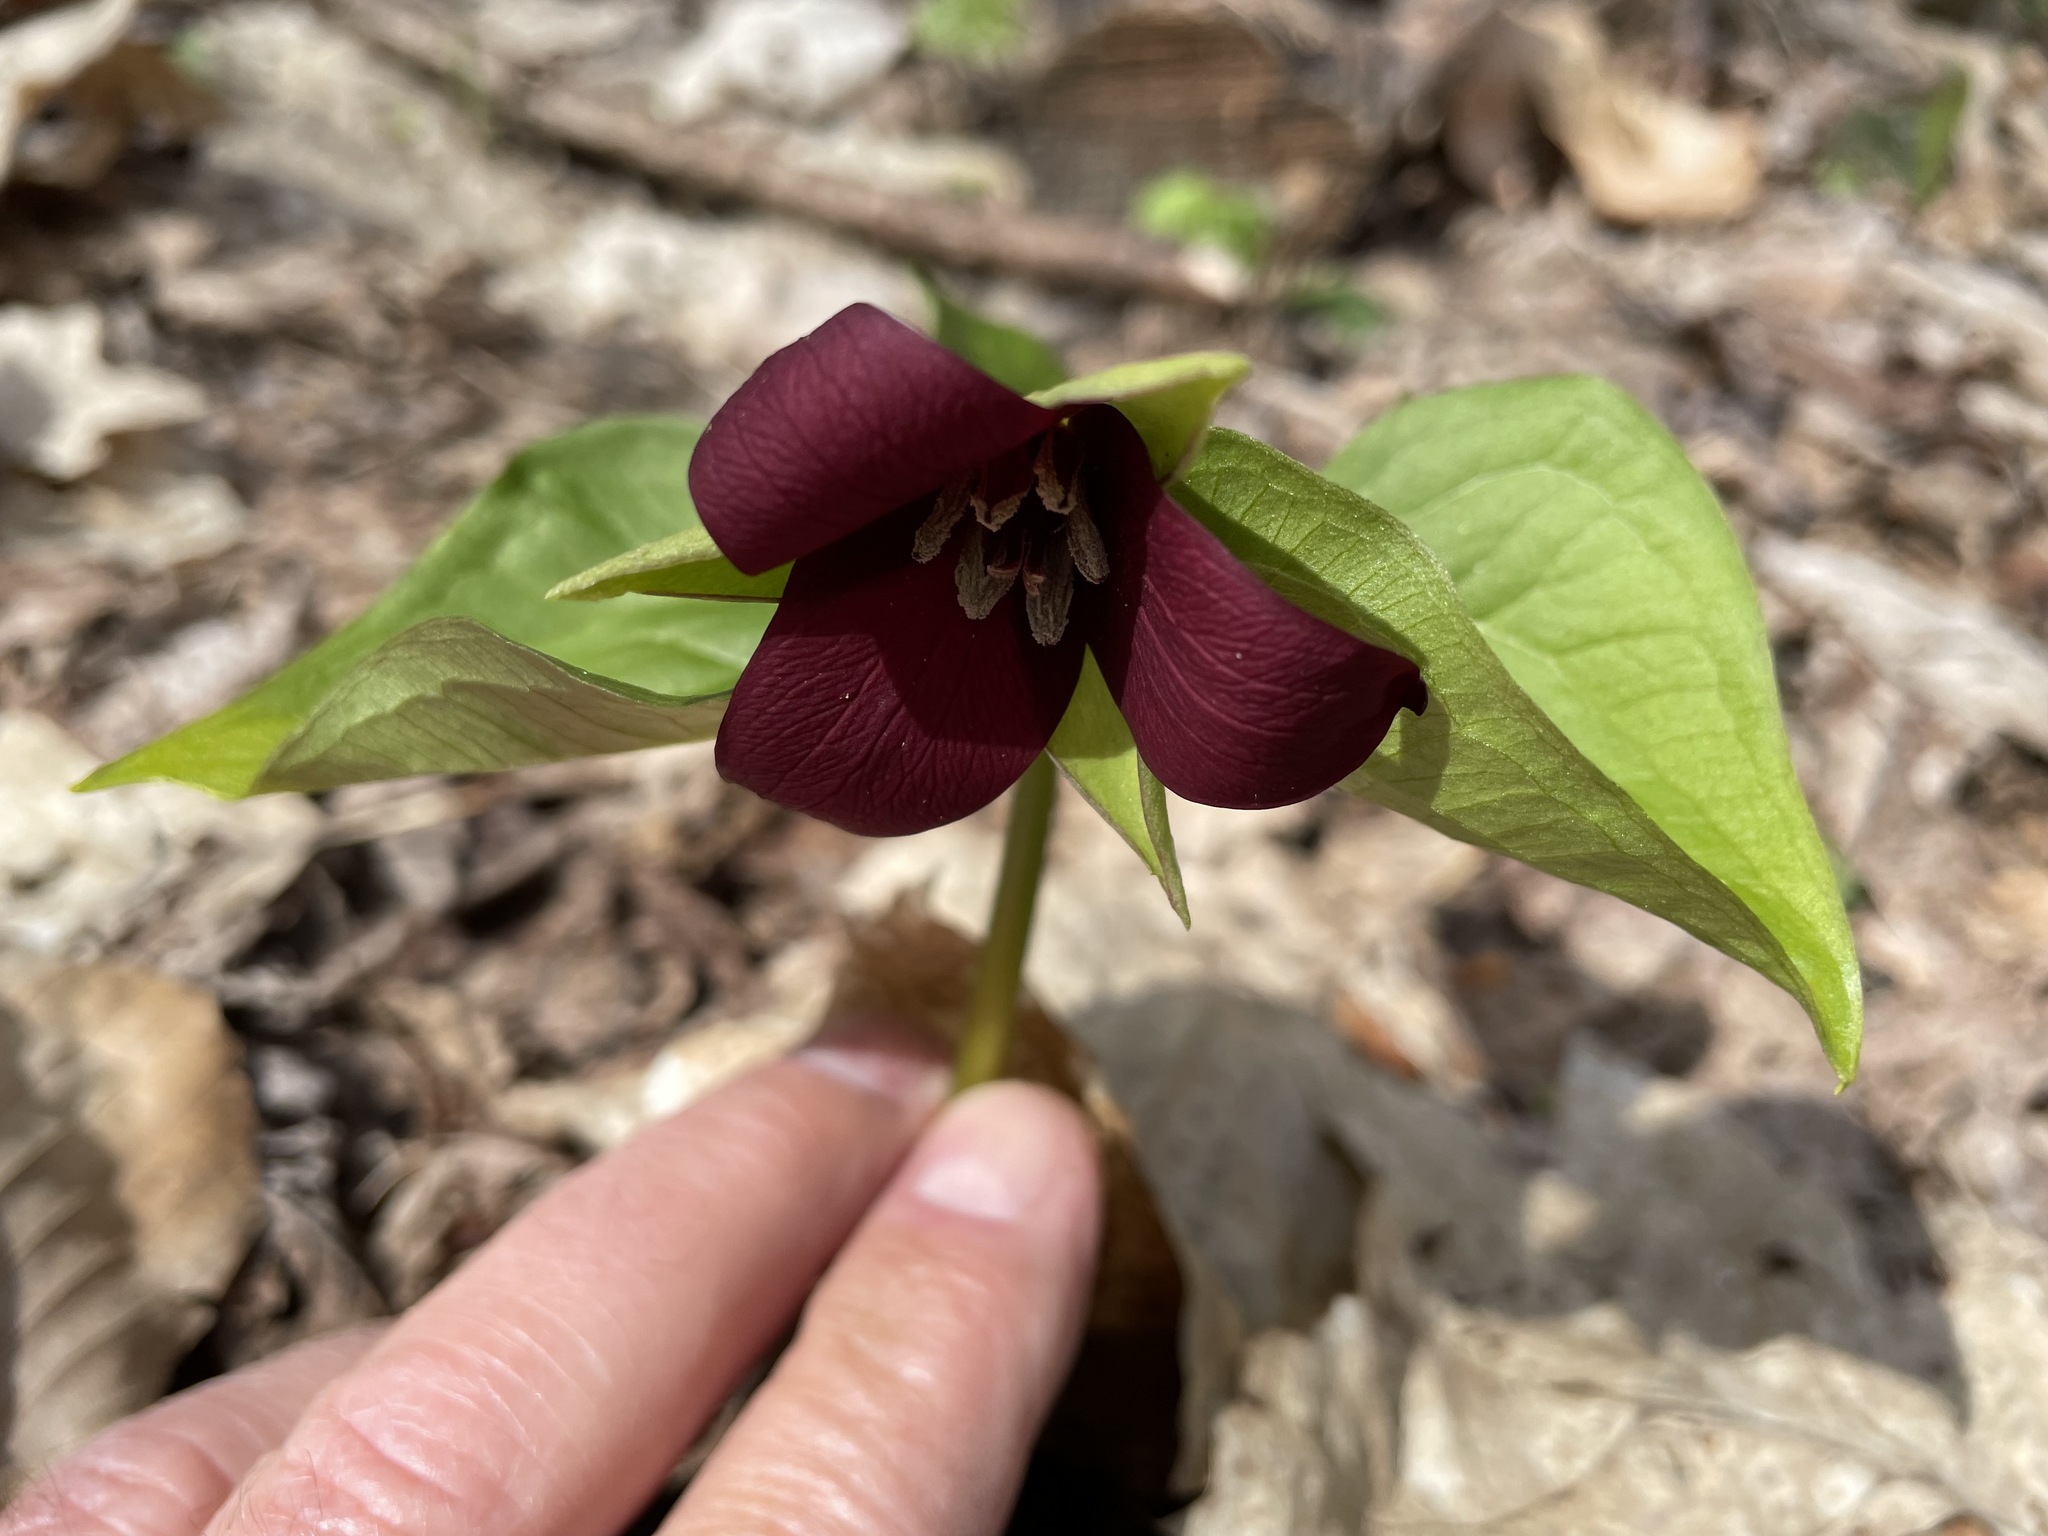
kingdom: Plantae
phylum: Tracheophyta
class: Liliopsida
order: Liliales
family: Melanthiaceae
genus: Trillium
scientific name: Trillium erectum
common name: Purple trillium
